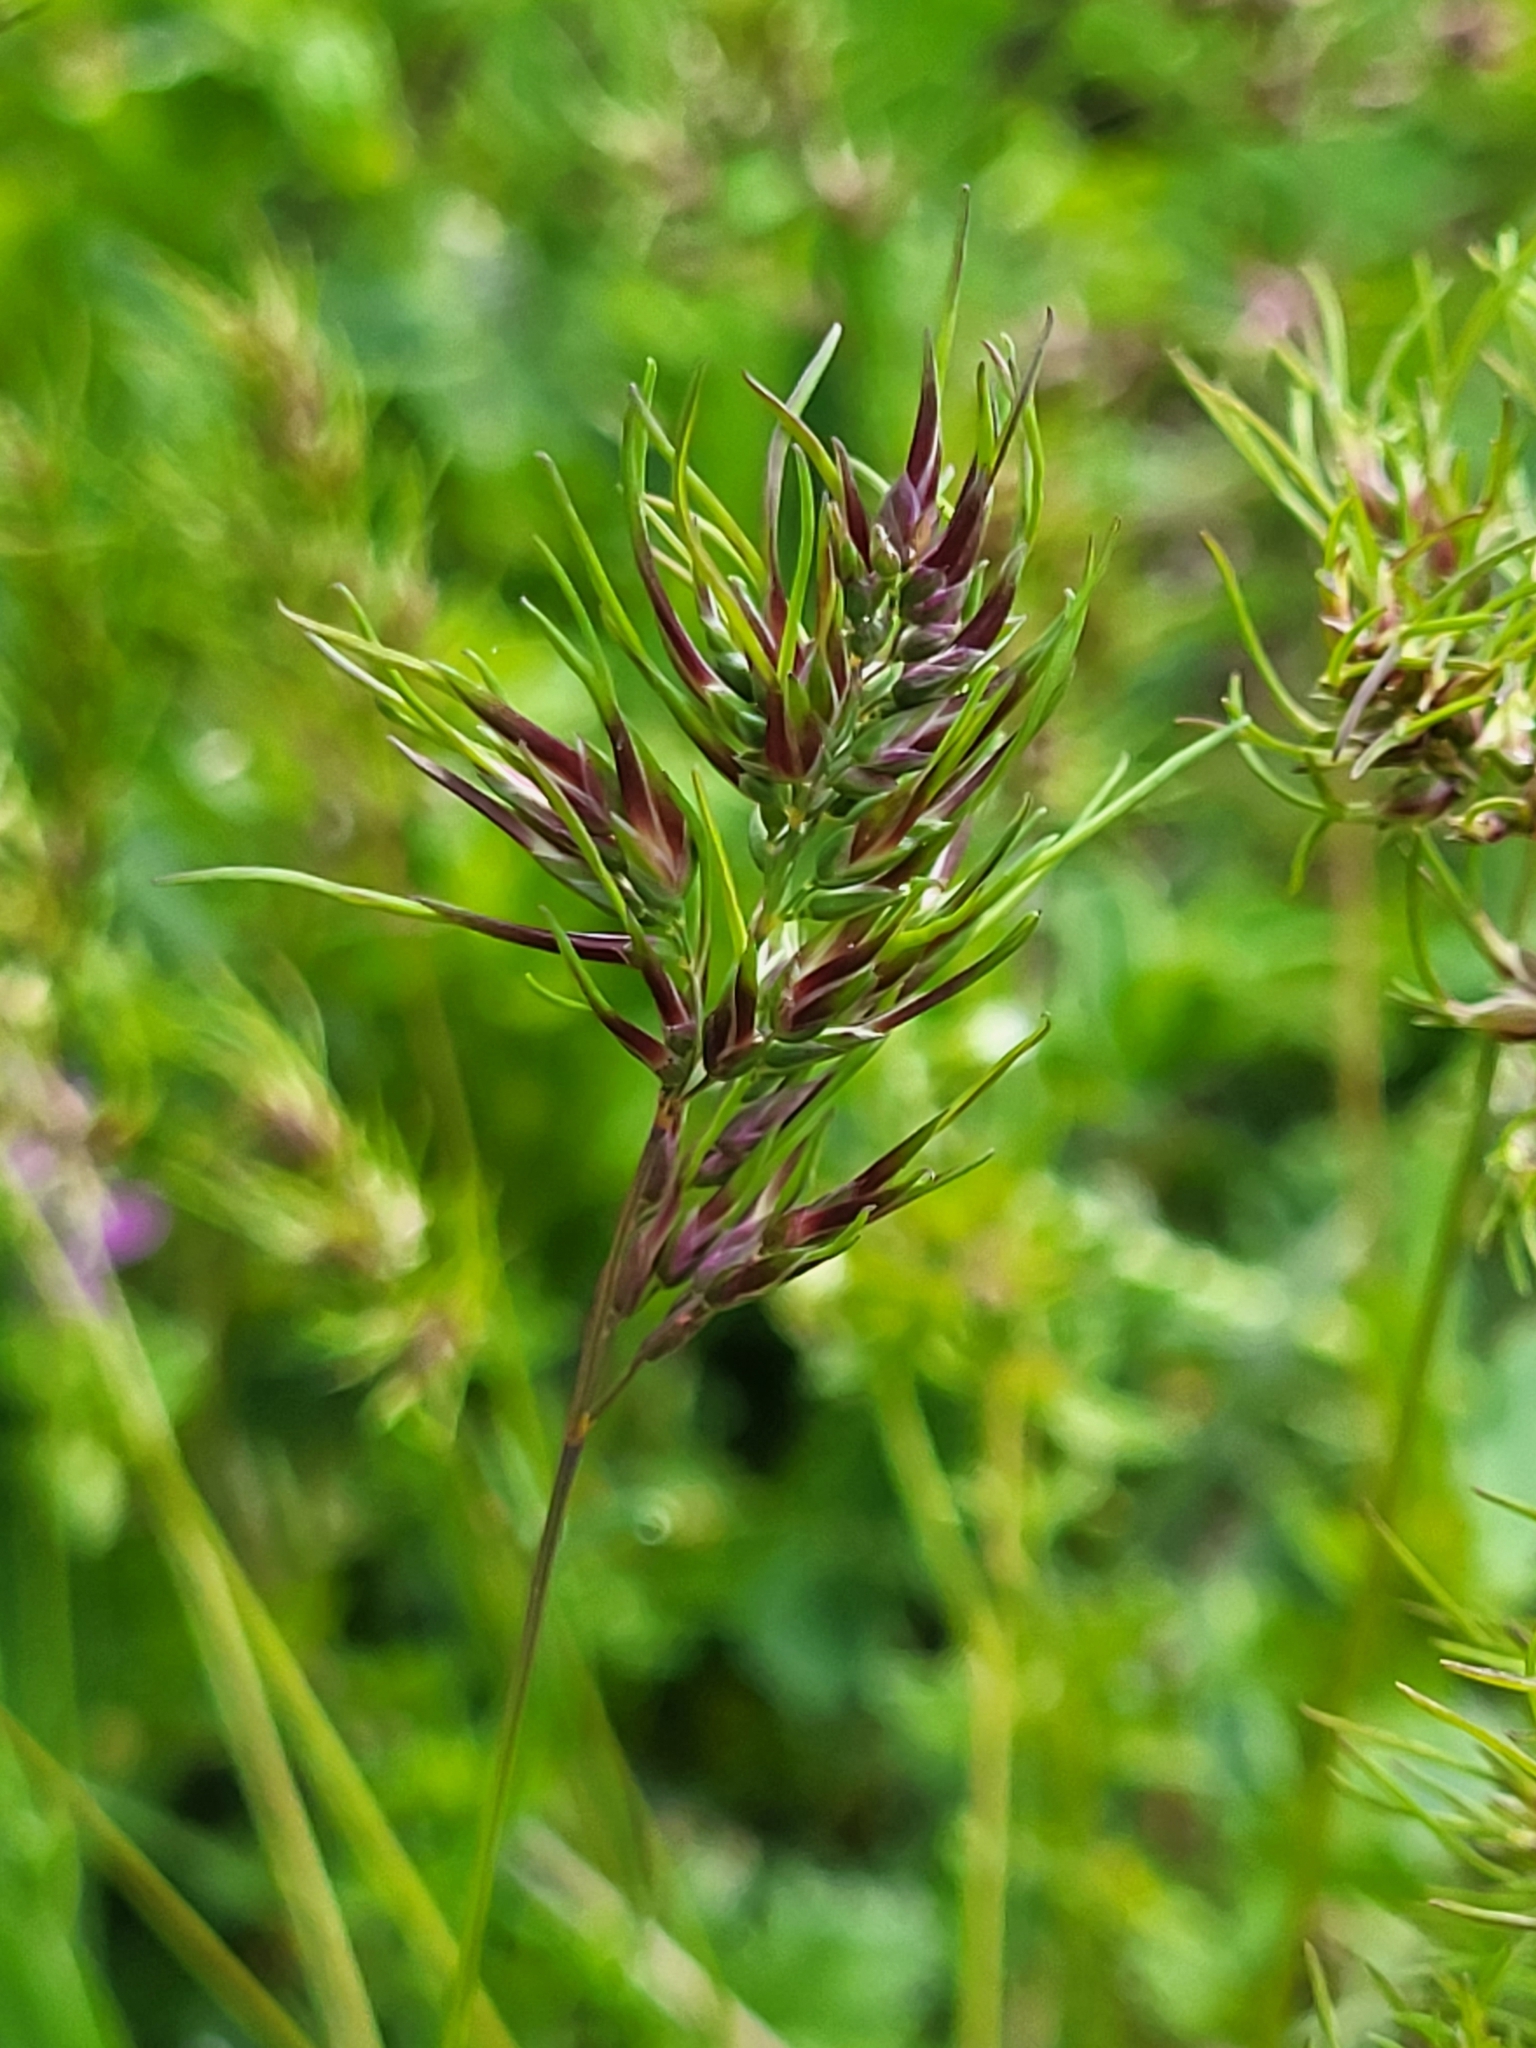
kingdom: Plantae
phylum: Tracheophyta
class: Liliopsida
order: Poales
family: Poaceae
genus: Poa
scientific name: Poa bulbosa
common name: Bulbous bluegrass
